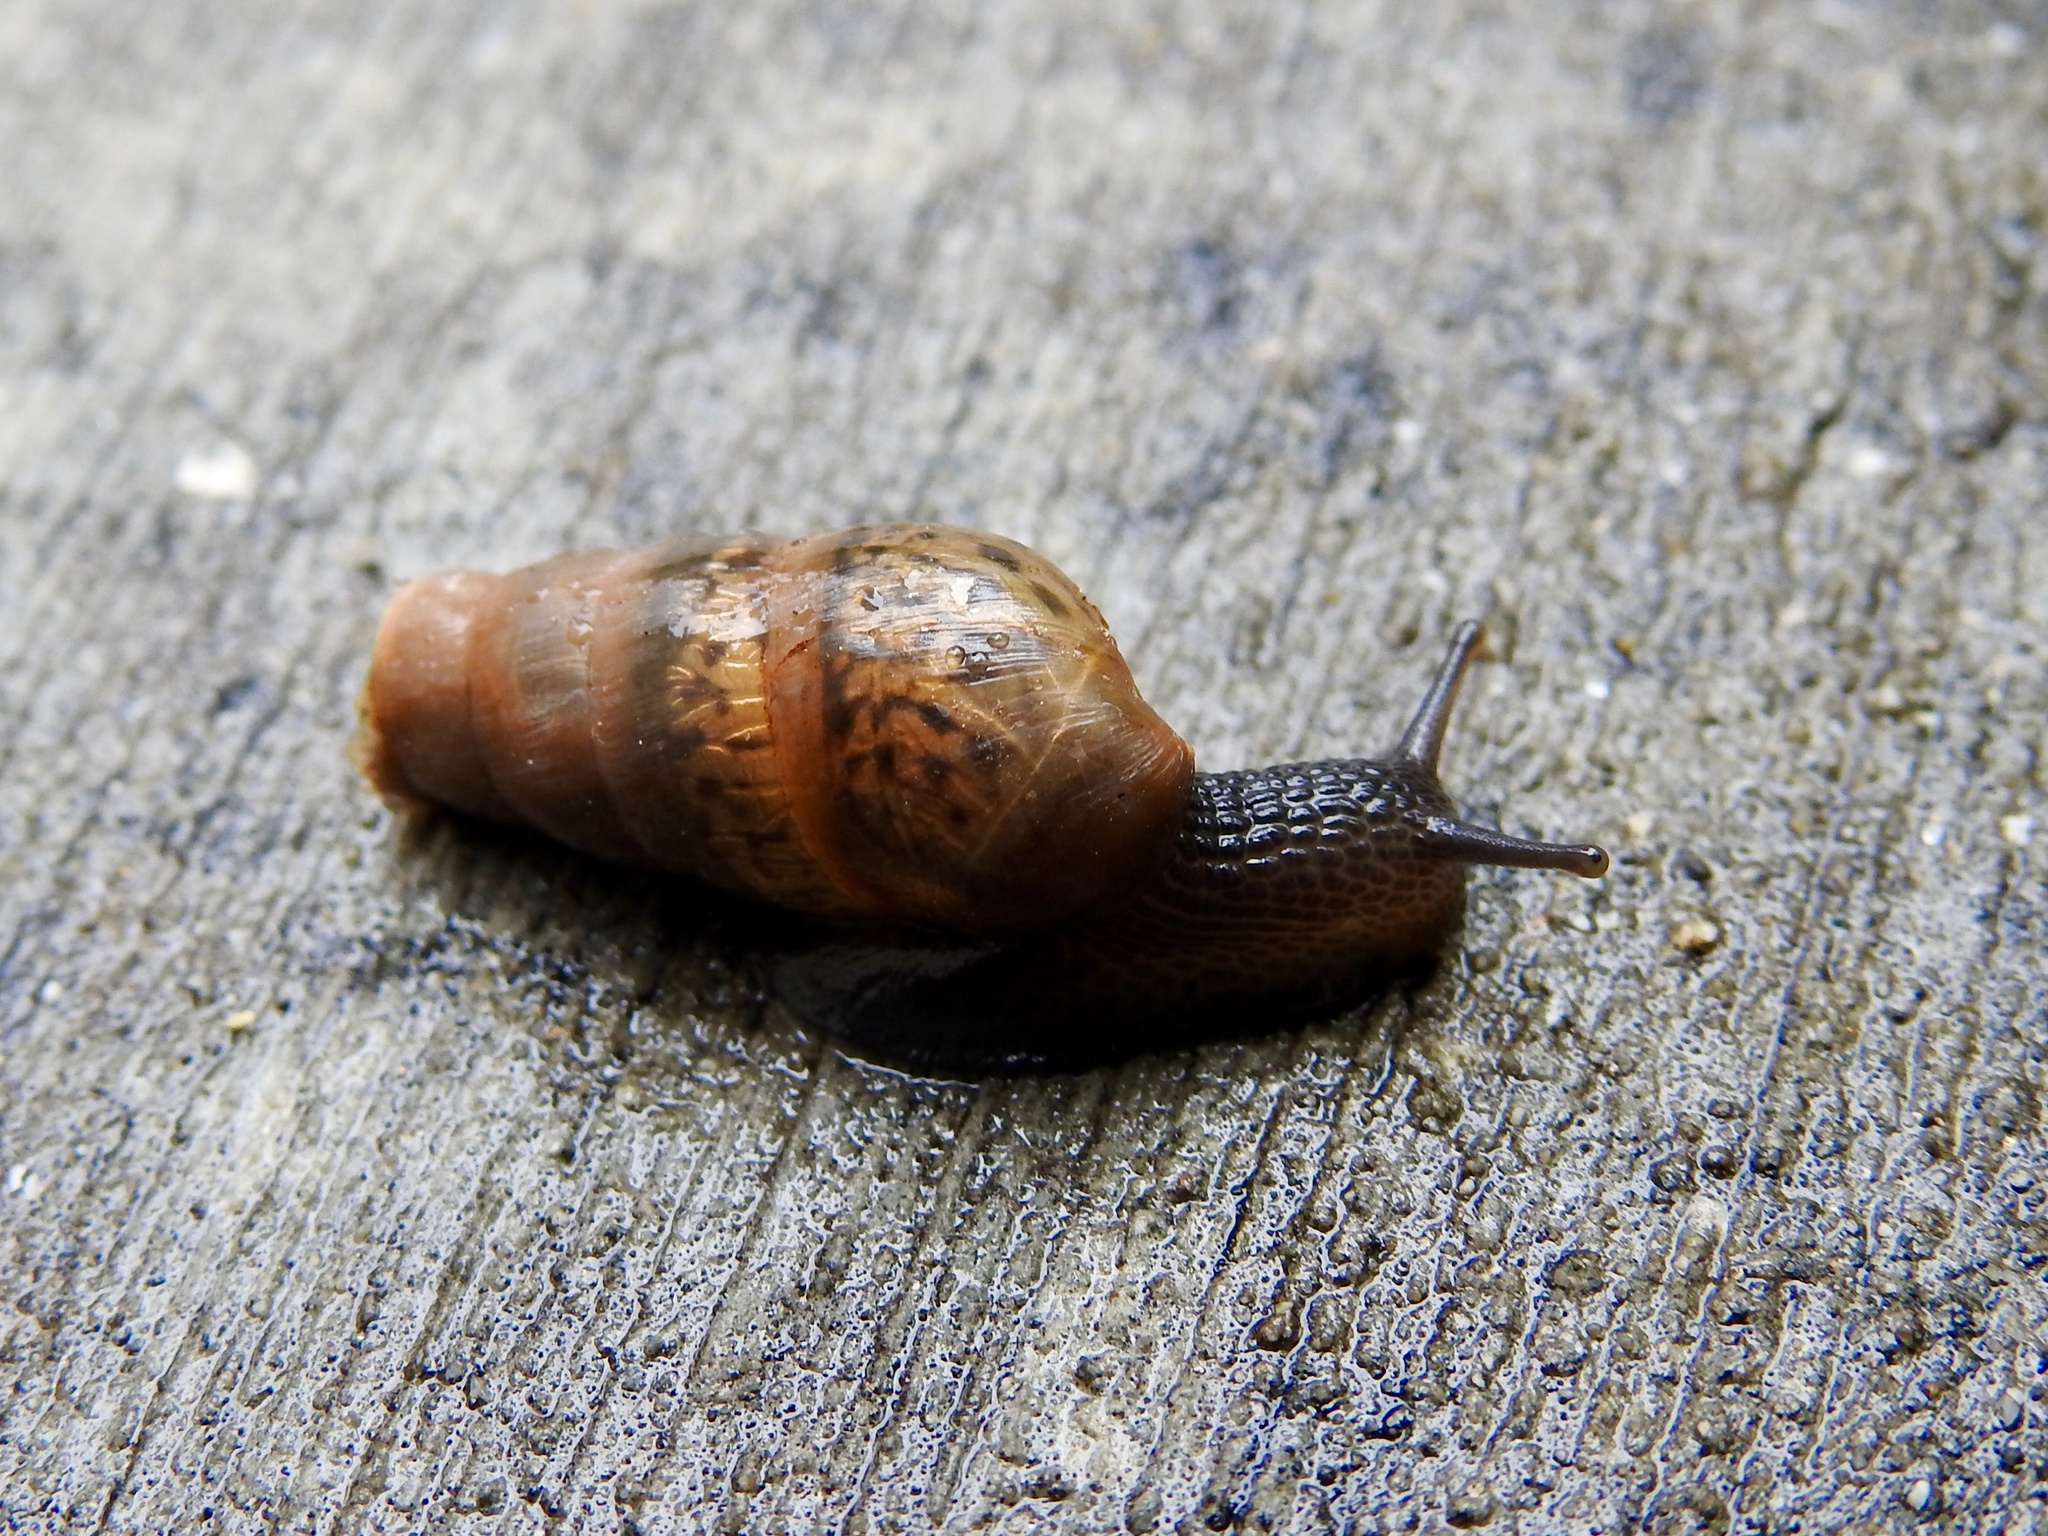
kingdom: Animalia
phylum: Mollusca
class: Gastropoda
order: Stylommatophora
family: Achatinidae
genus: Rumina
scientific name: Rumina decollata
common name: Decollate snail
